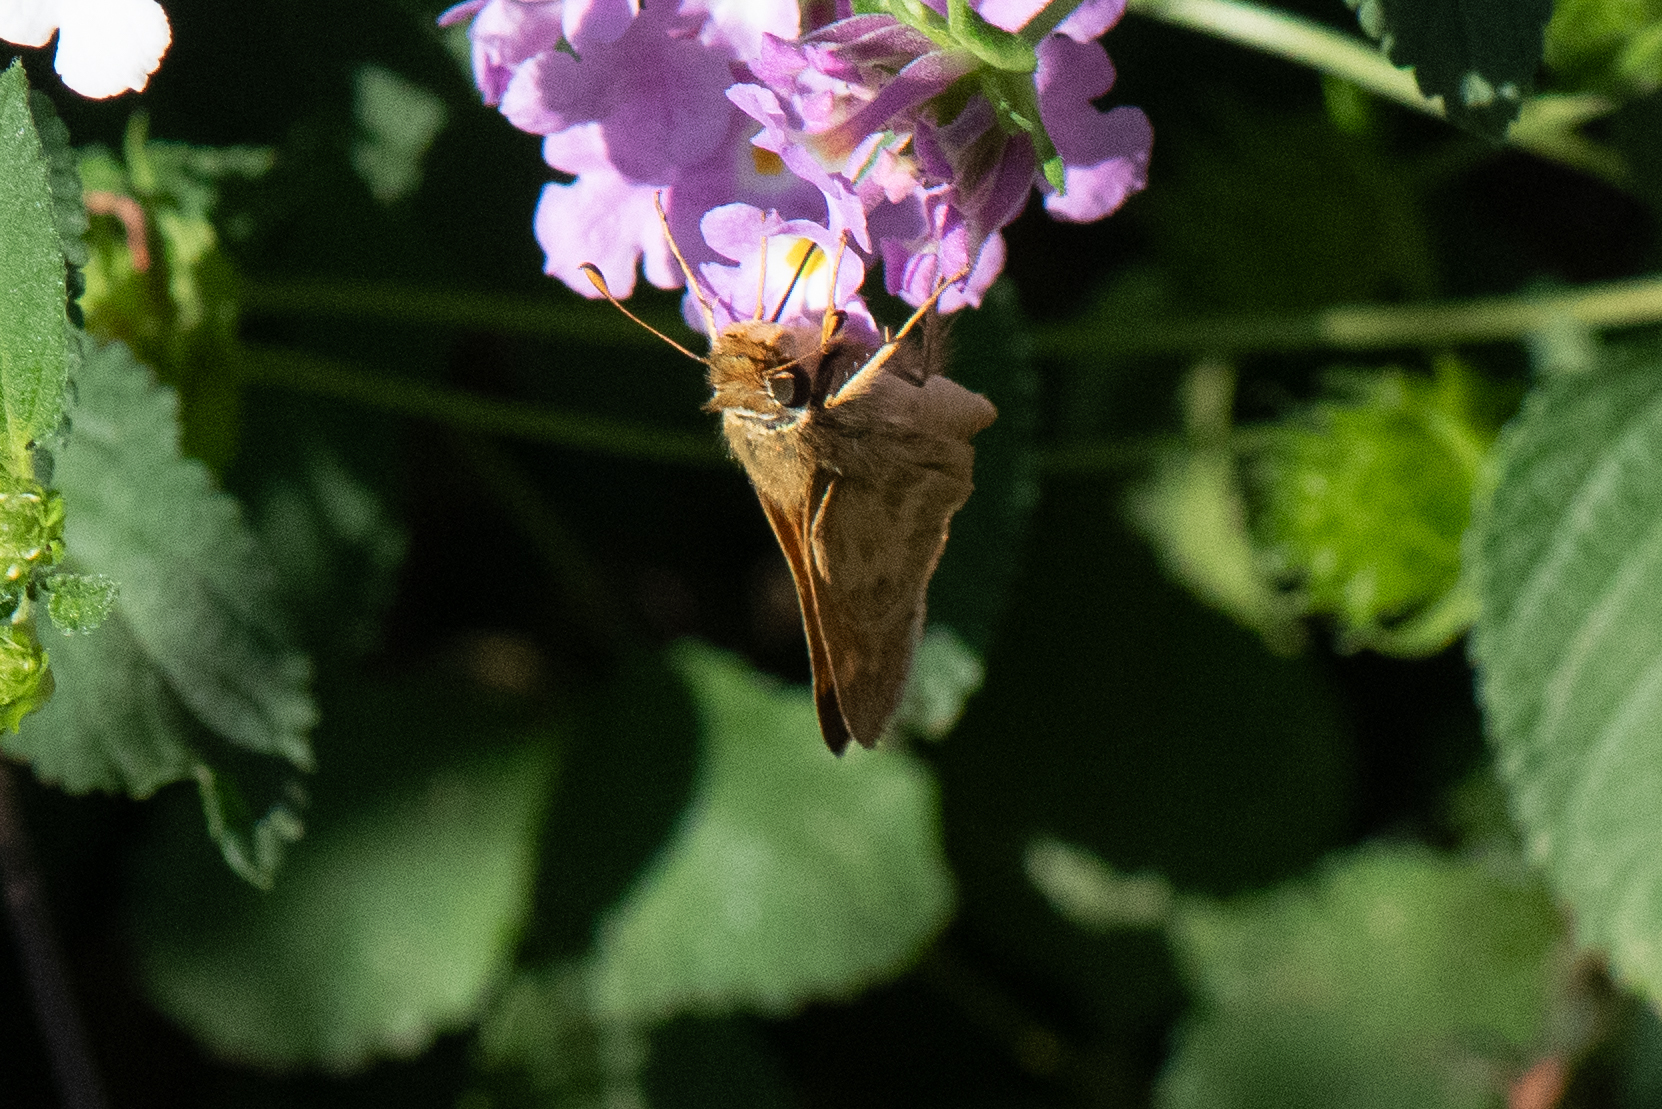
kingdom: Animalia
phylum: Arthropoda
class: Insecta
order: Lepidoptera
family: Hesperiidae
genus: Atalopedes
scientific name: Atalopedes campestris
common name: Sachem
